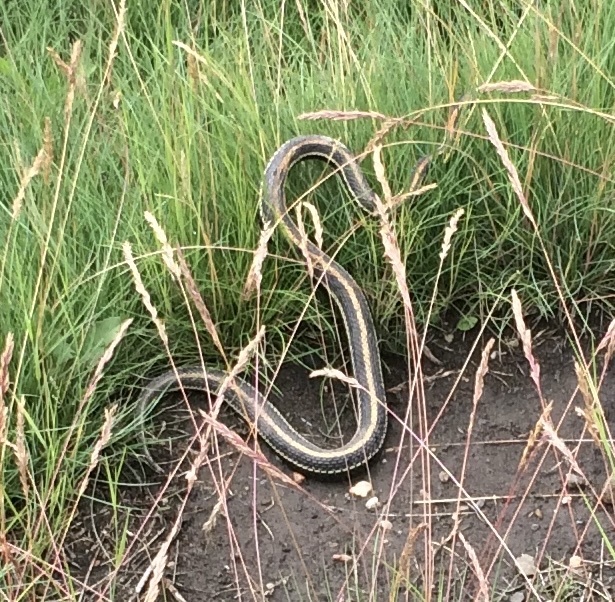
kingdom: Animalia
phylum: Chordata
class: Squamata
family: Colubridae
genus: Thamnophis
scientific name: Thamnophis radix
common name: Plains garter snake
